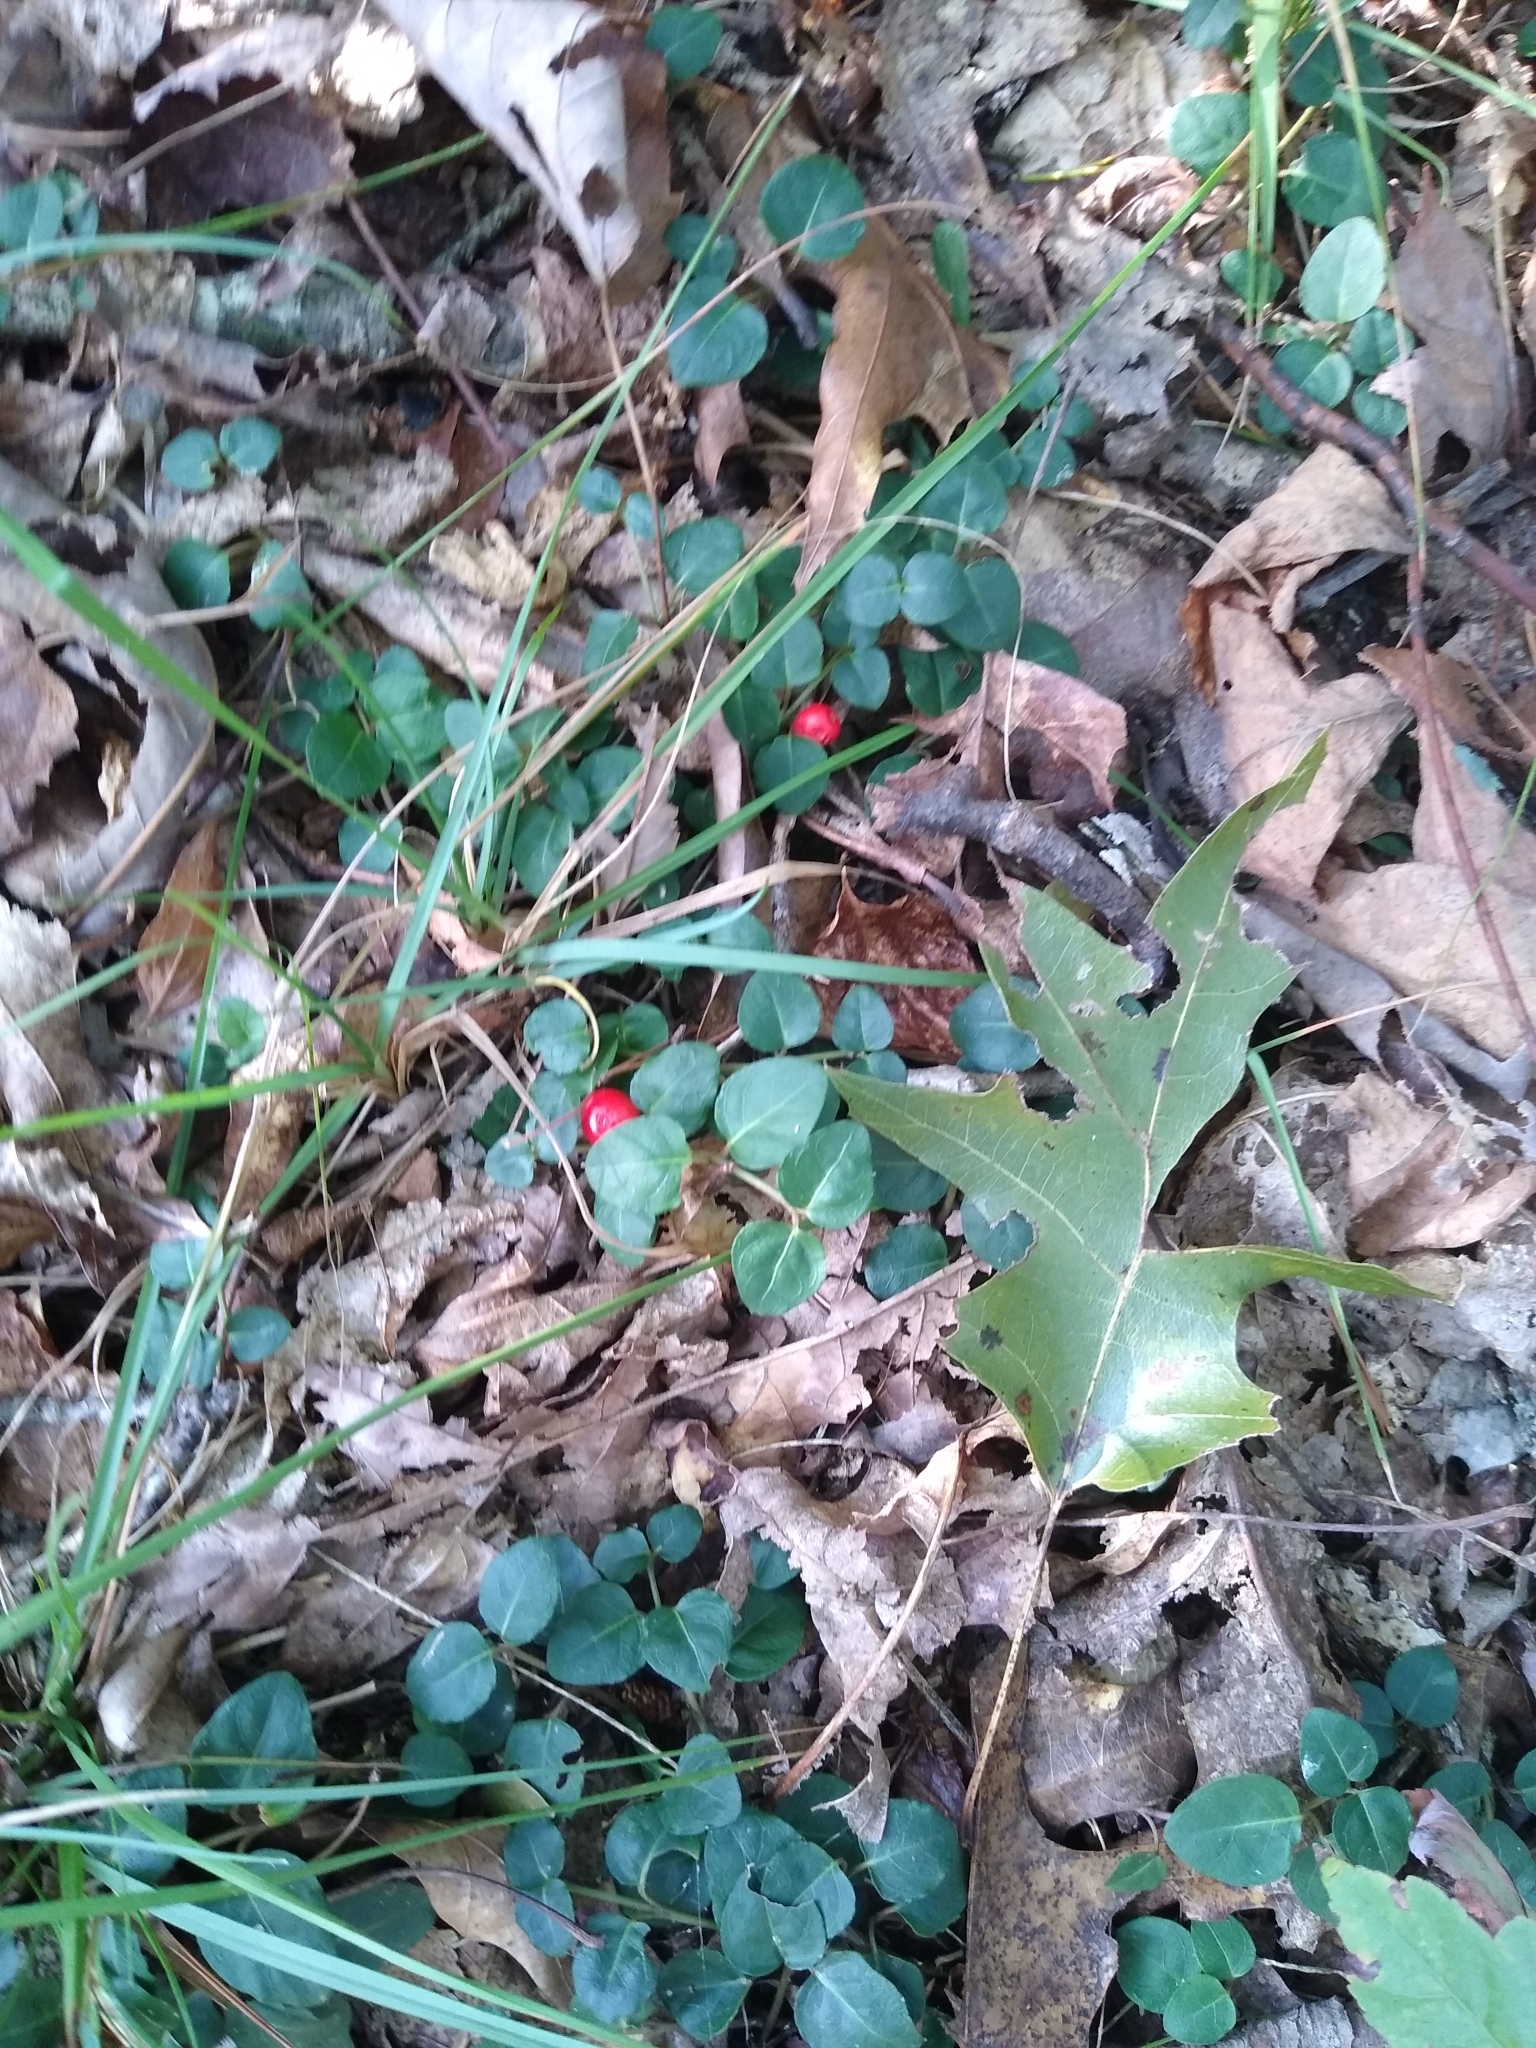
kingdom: Plantae
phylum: Tracheophyta
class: Magnoliopsida
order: Gentianales
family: Rubiaceae
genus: Mitchella
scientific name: Mitchella repens
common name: Partridge-berry
